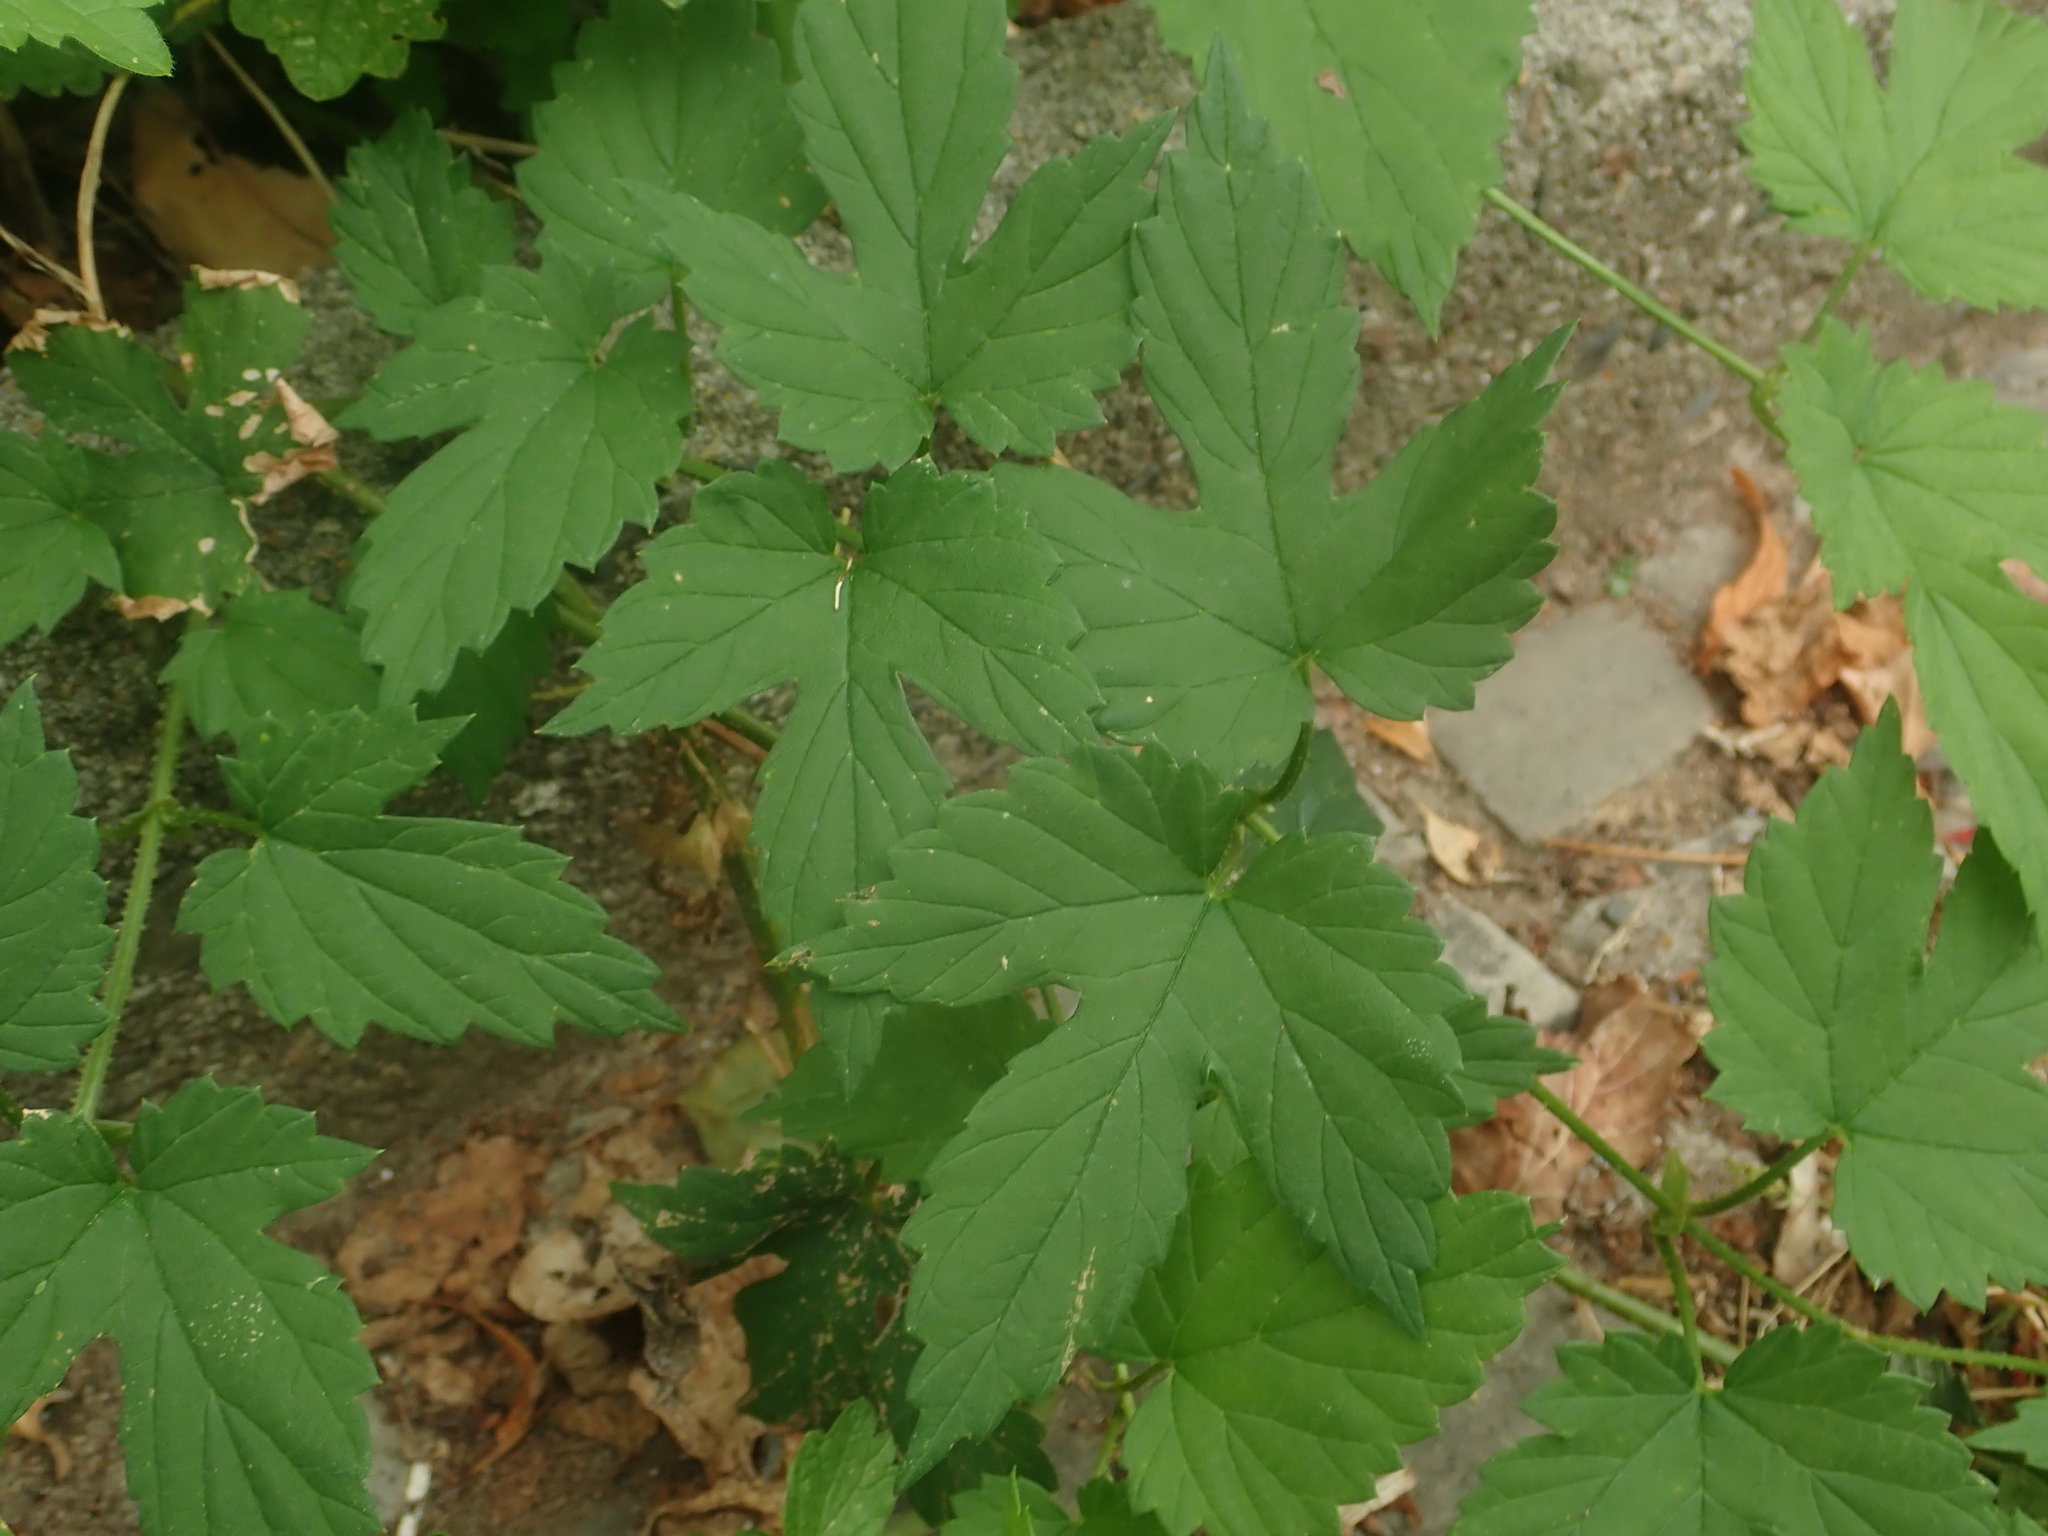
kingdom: Plantae
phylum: Tracheophyta
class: Magnoliopsida
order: Rosales
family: Cannabaceae
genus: Humulus
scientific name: Humulus lupulus
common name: Hop
